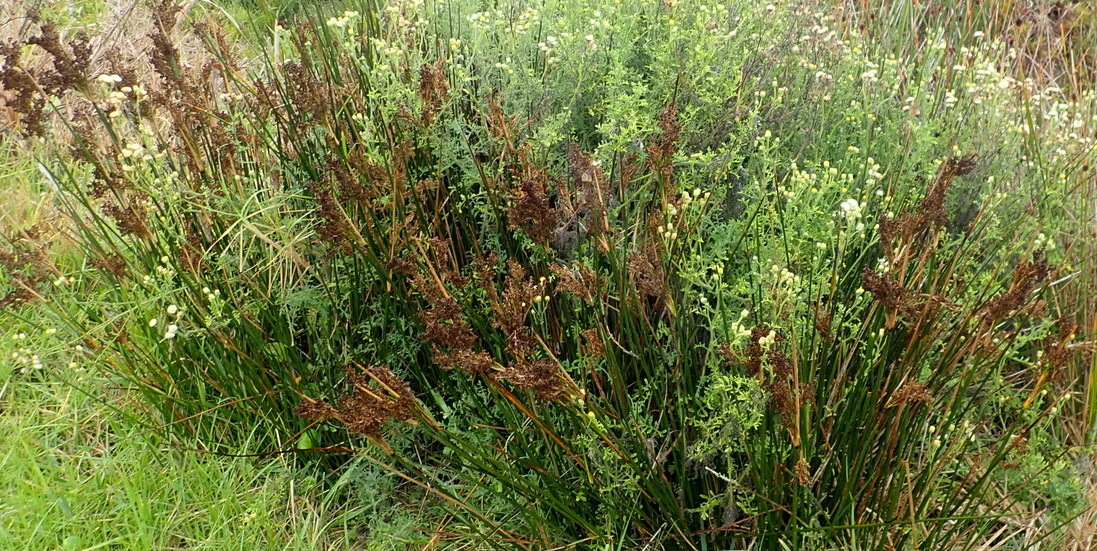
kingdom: Plantae
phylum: Tracheophyta
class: Liliopsida
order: Poales
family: Juncaceae
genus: Juncus
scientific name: Juncus kraussii
